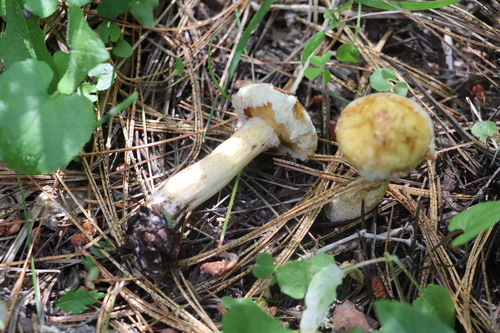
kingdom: Fungi
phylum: Basidiomycota
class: Agaricomycetes
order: Boletales
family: Suillaceae
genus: Suillus
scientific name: Suillus americanus
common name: Chicken fat mushroom
